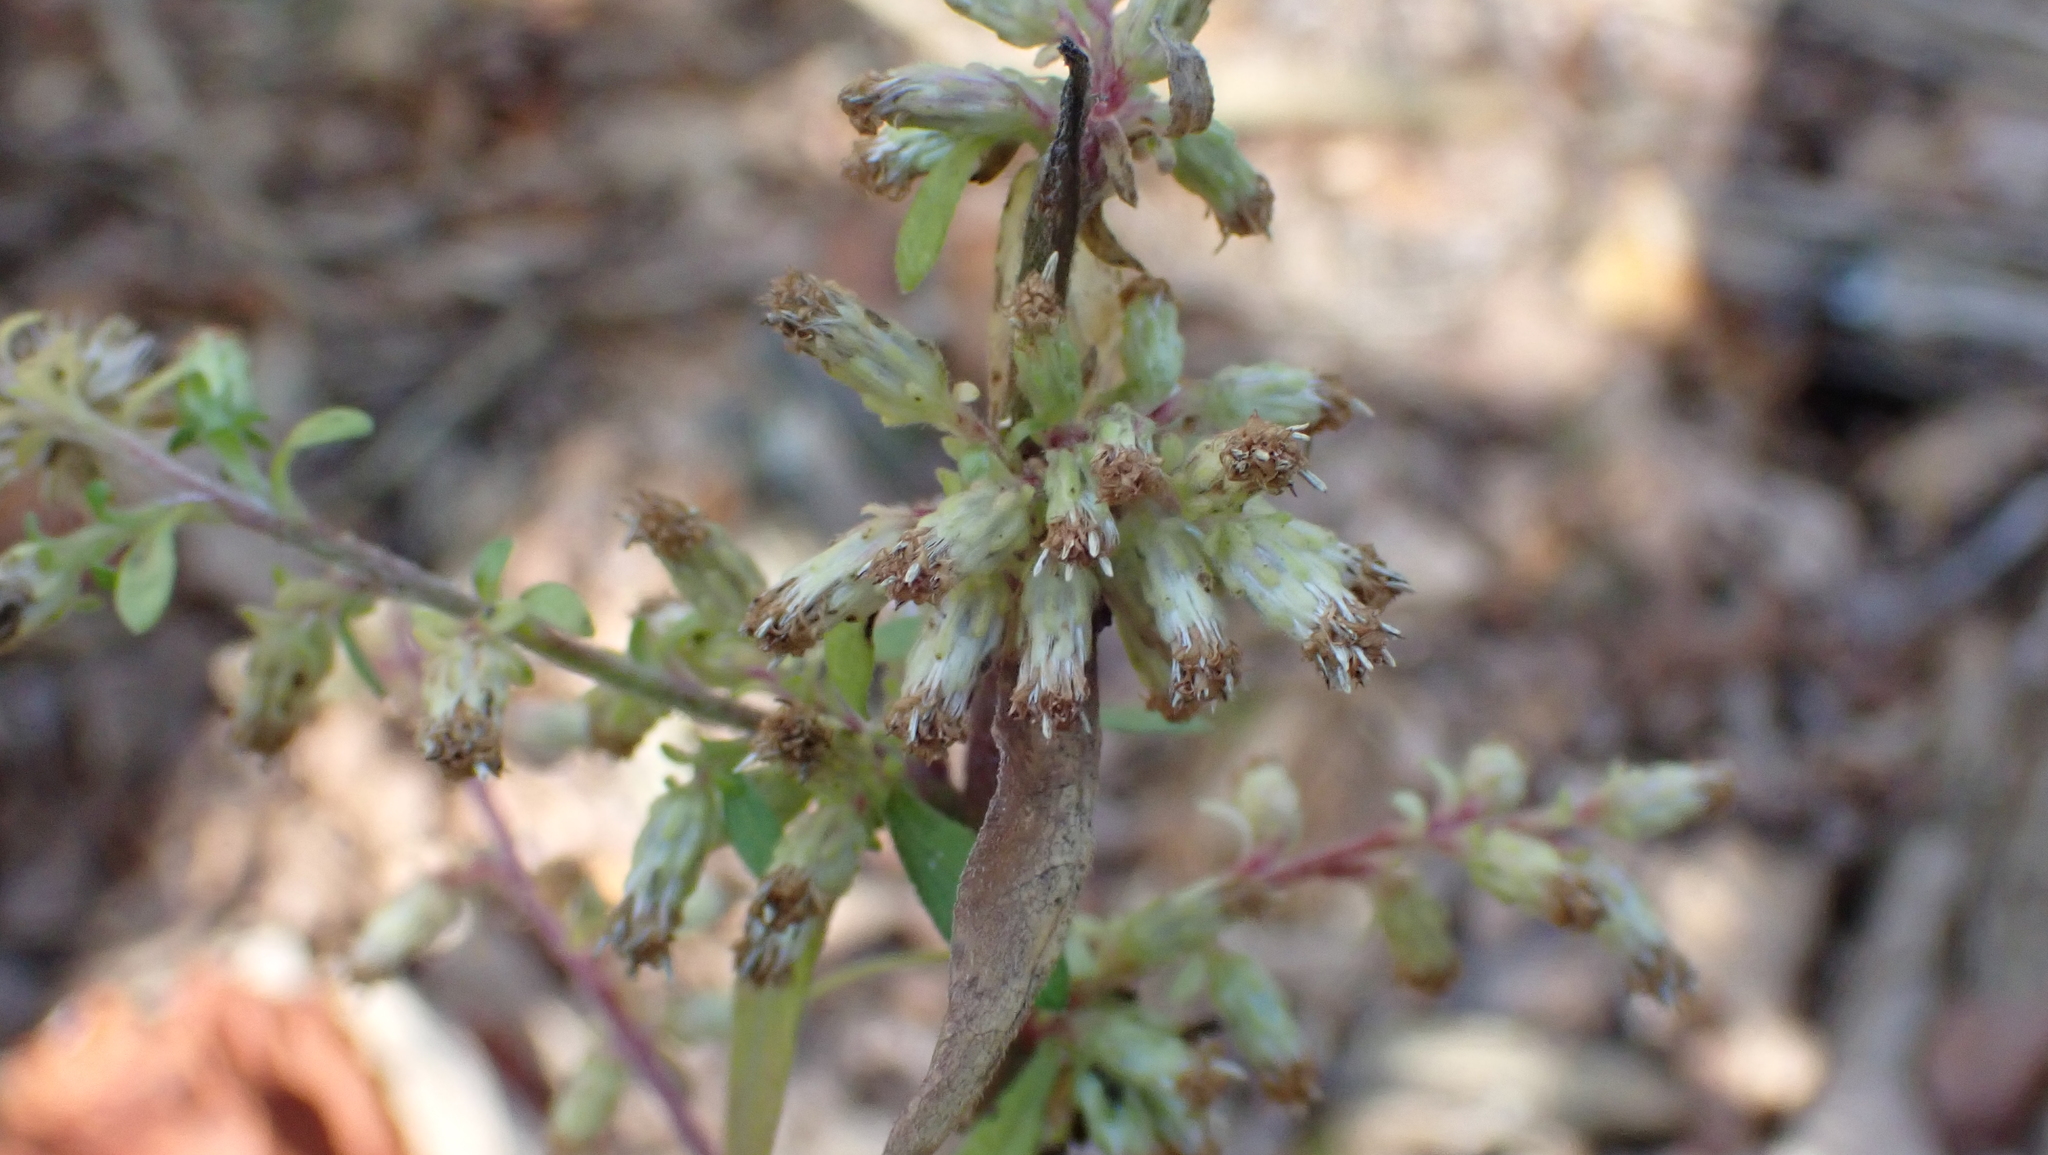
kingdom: Plantae
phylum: Tracheophyta
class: Magnoliopsida
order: Asterales
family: Asteraceae
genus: Solidago
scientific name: Solidago bicolor
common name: Silverrod
